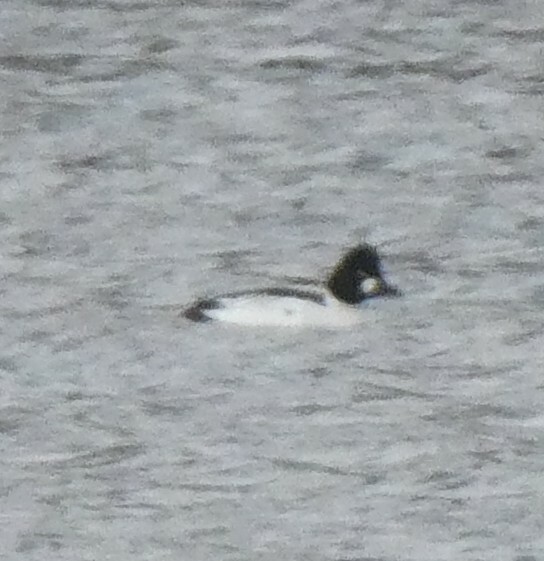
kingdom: Animalia
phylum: Chordata
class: Aves
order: Anseriformes
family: Anatidae
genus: Bucephala
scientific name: Bucephala clangula
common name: Common goldeneye
